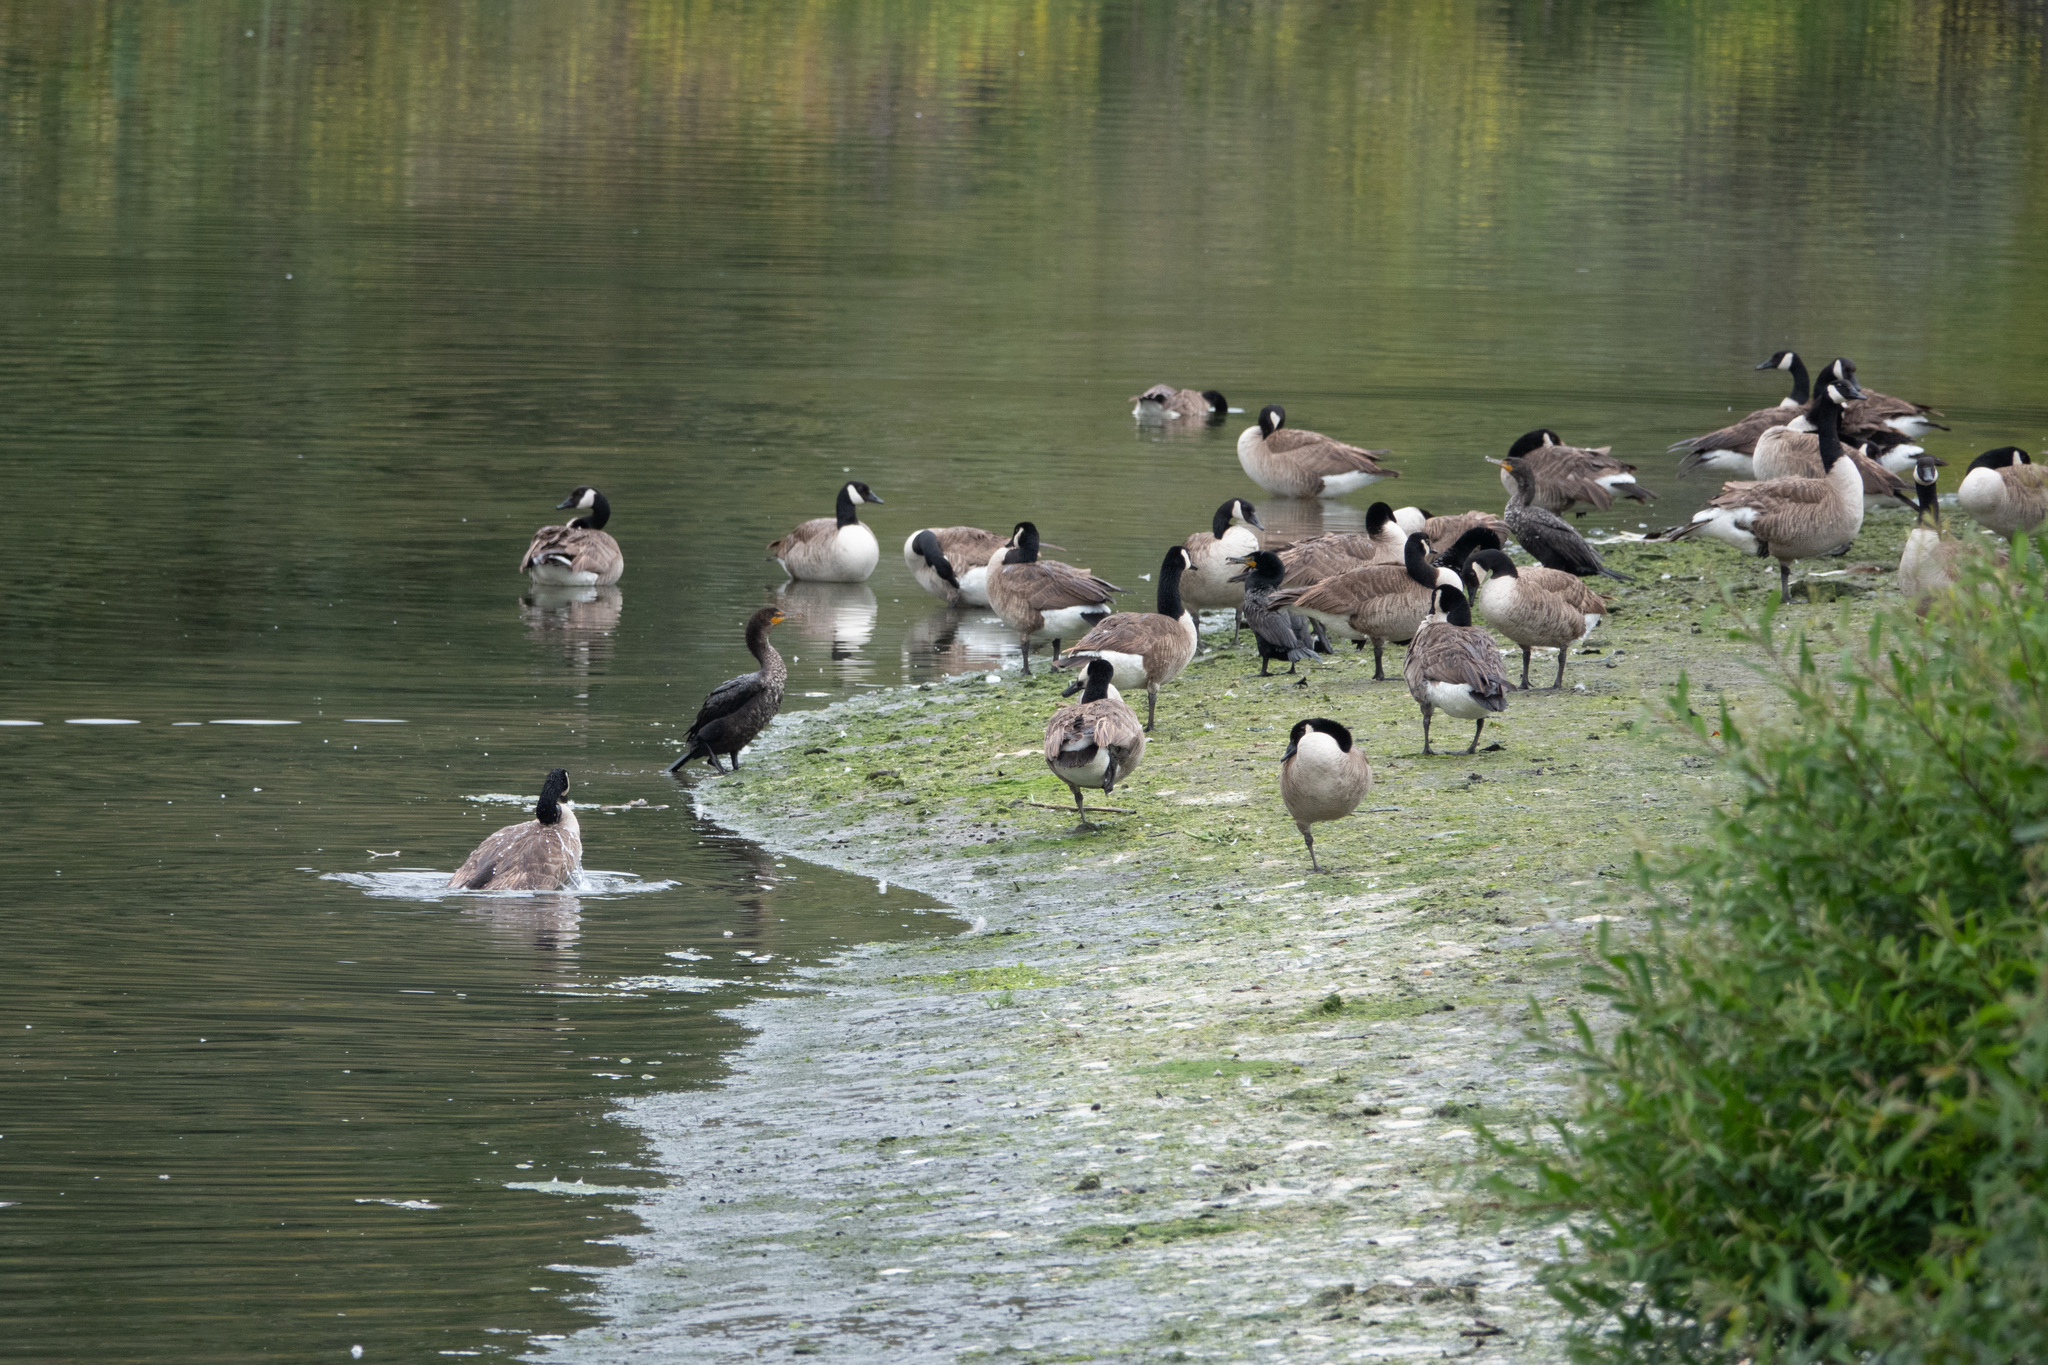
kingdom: Animalia
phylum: Chordata
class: Aves
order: Anseriformes
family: Anatidae
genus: Branta
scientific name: Branta canadensis
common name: Canada goose
